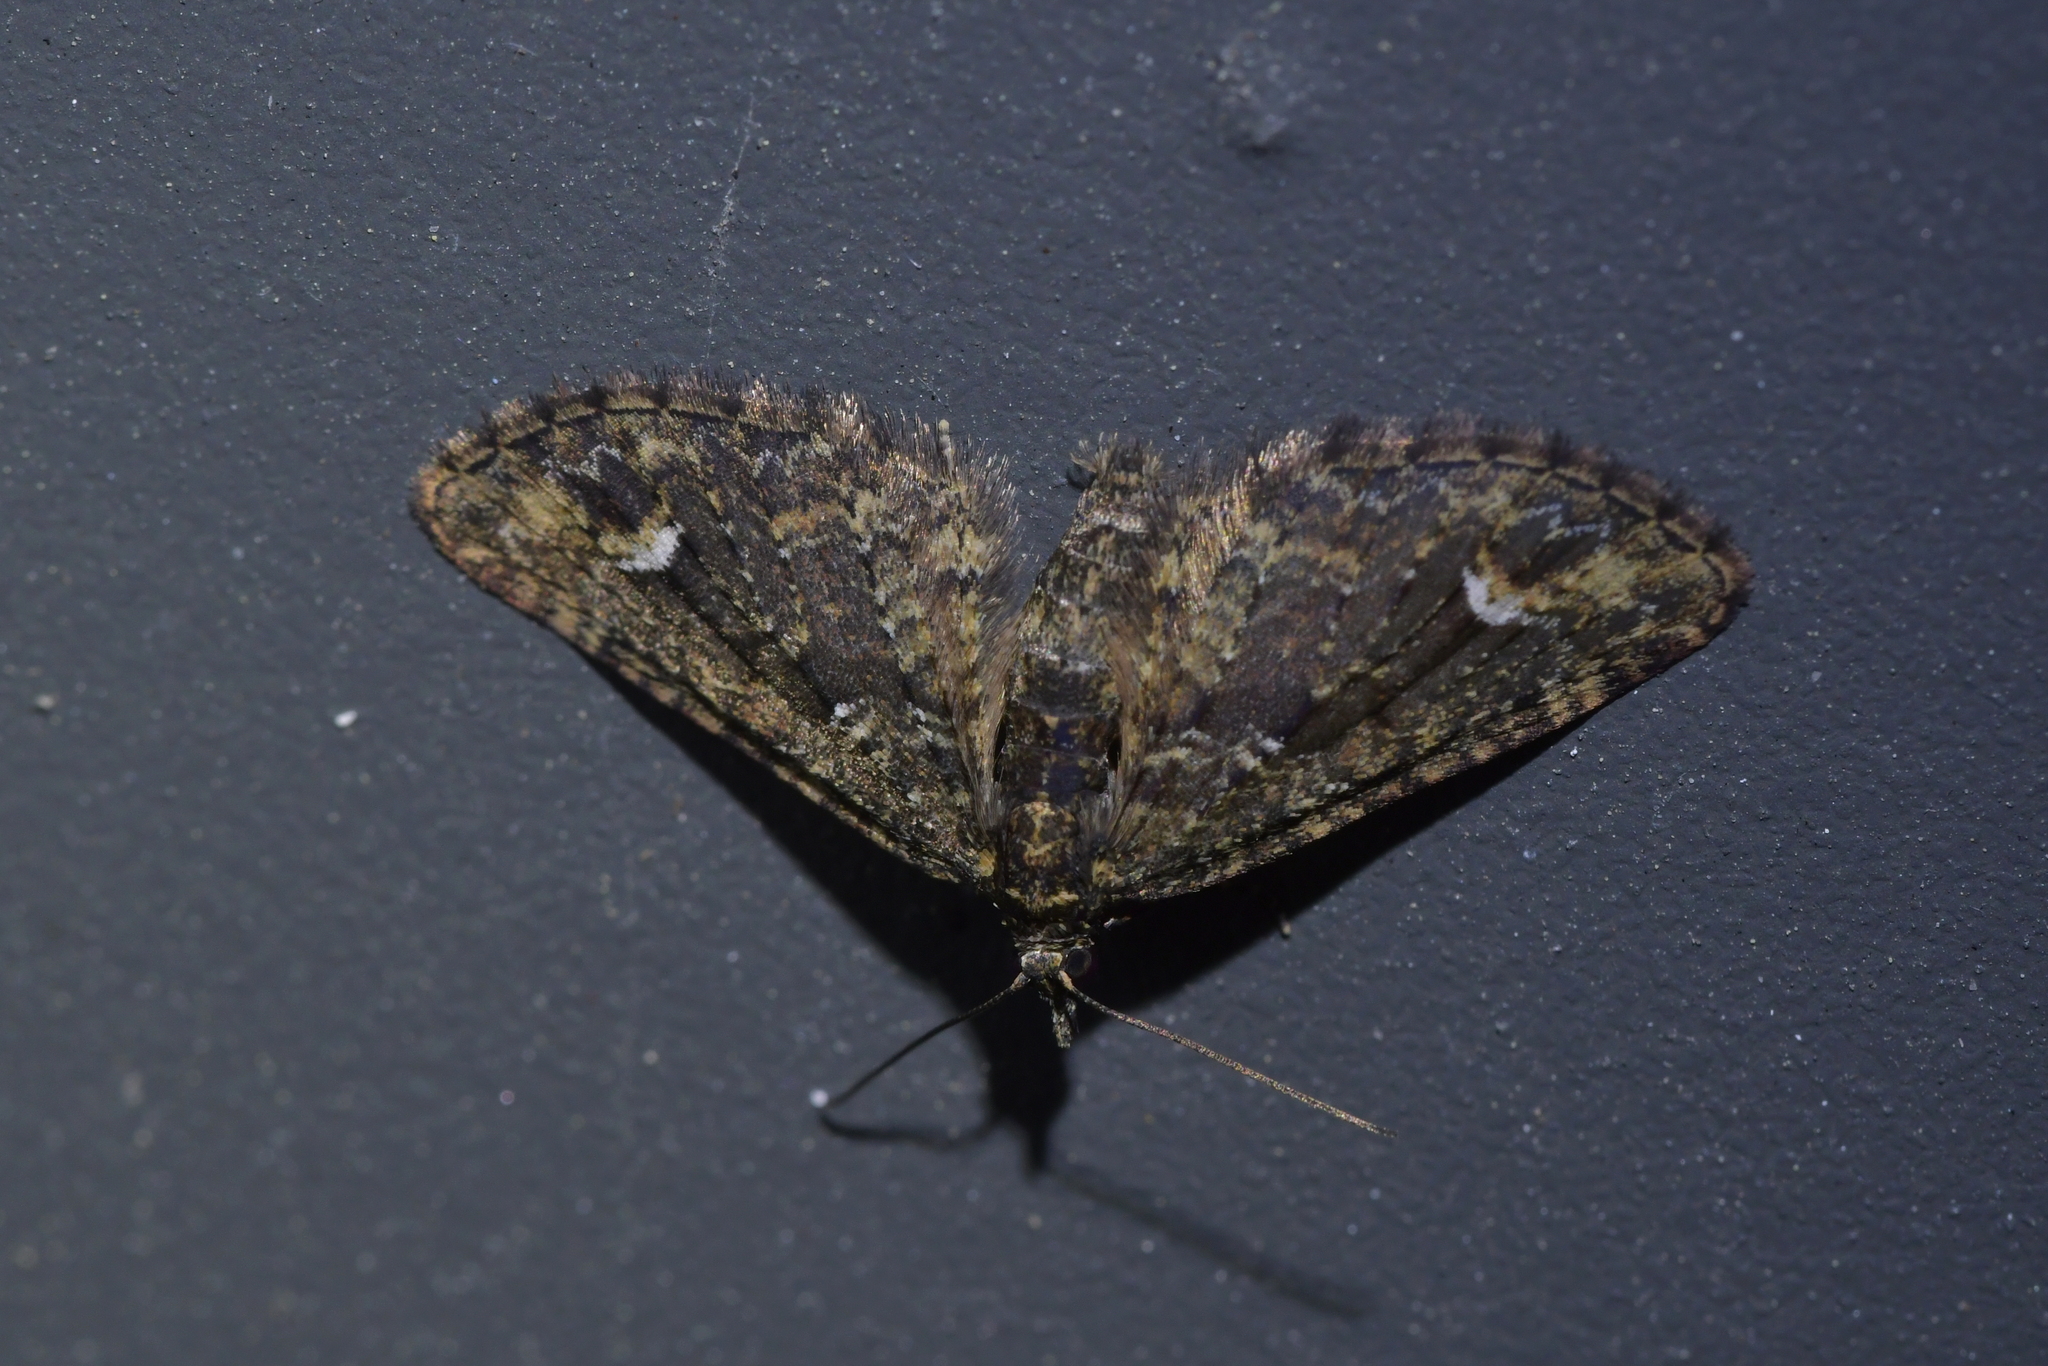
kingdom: Animalia
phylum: Arthropoda
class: Insecta
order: Lepidoptera
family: Geometridae
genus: Pasiphilodes
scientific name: Pasiphilodes testulata
